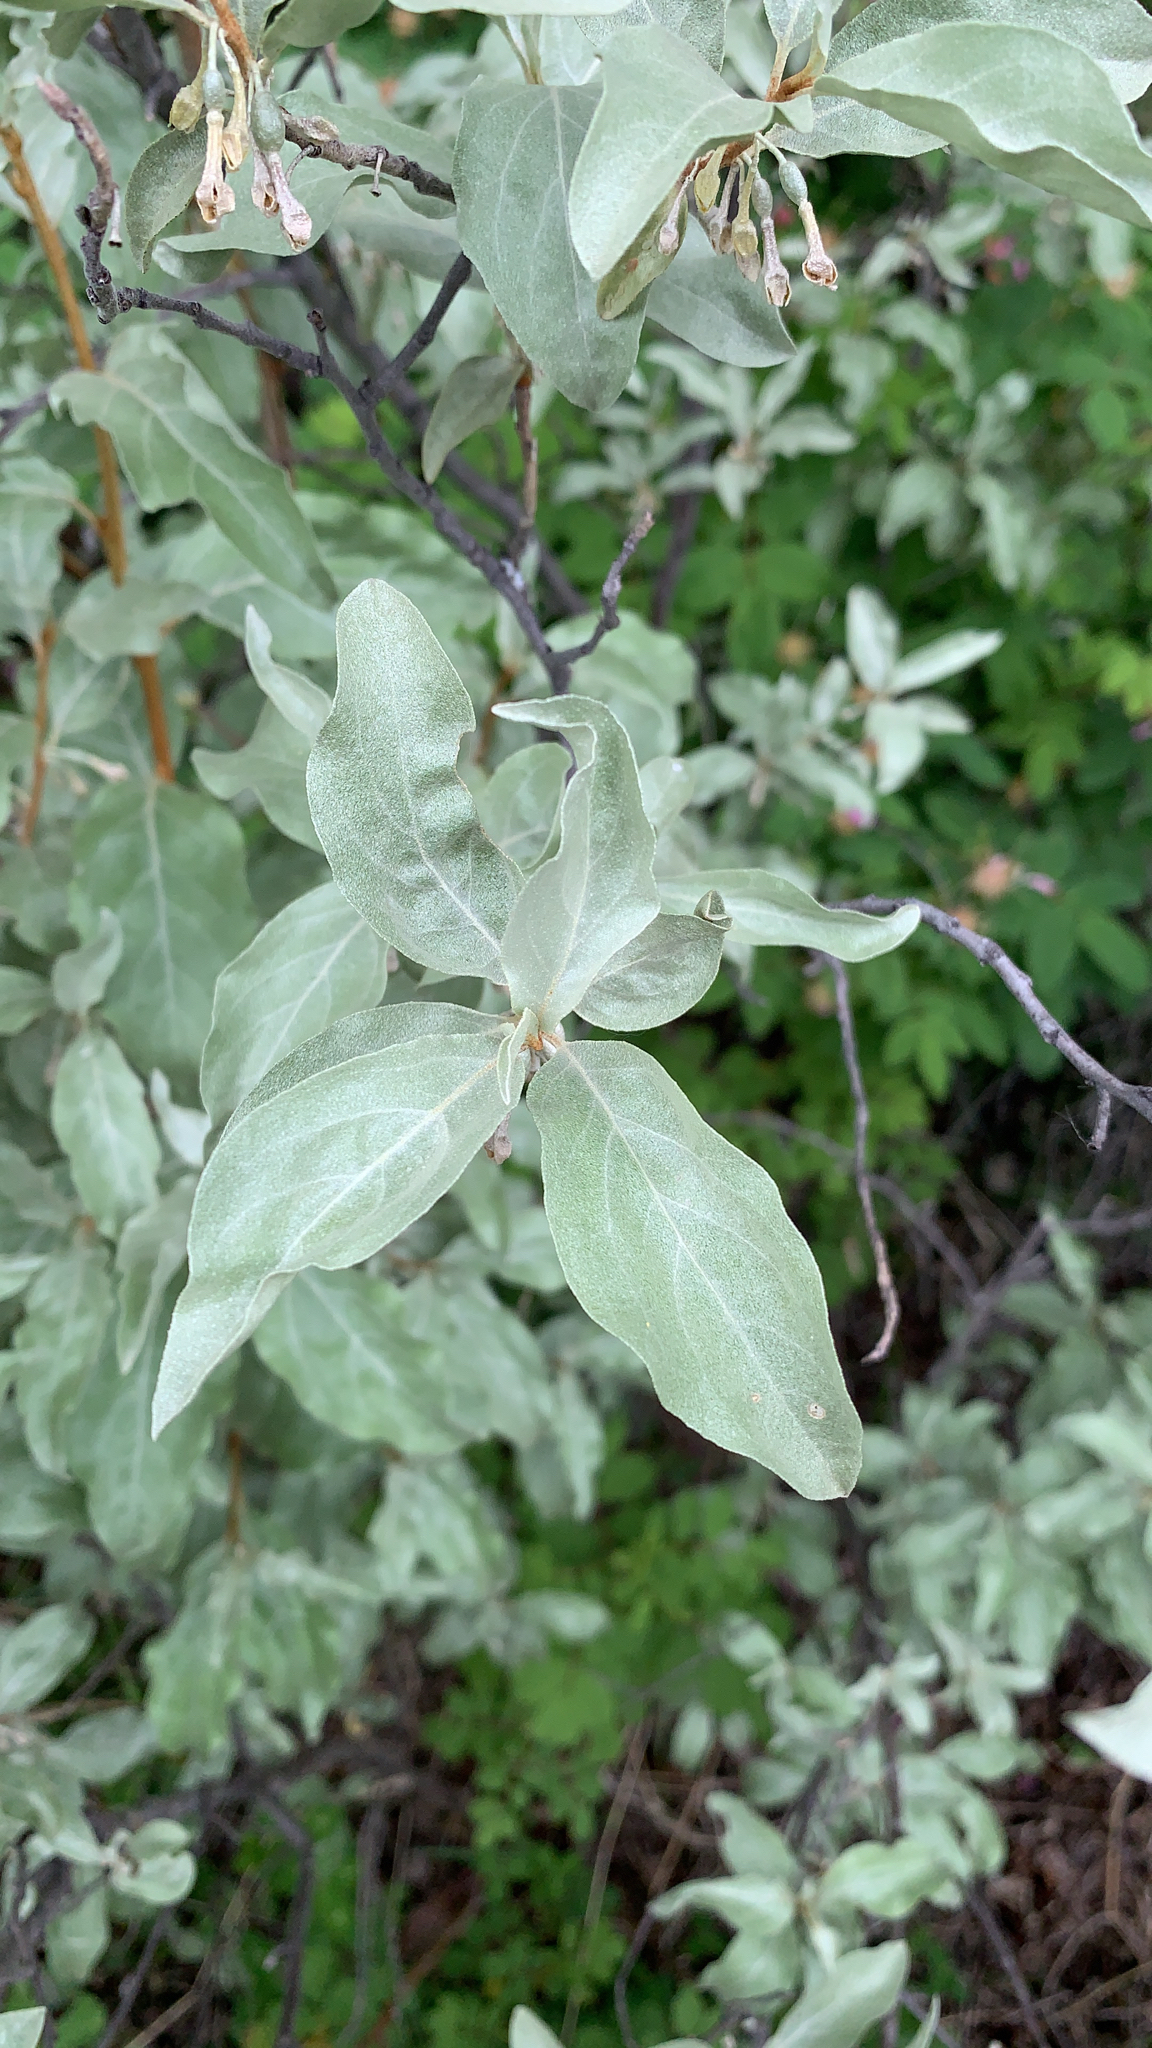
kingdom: Plantae
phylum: Tracheophyta
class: Magnoliopsida
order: Rosales
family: Elaeagnaceae
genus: Elaeagnus
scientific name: Elaeagnus commutata
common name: Silverberry
